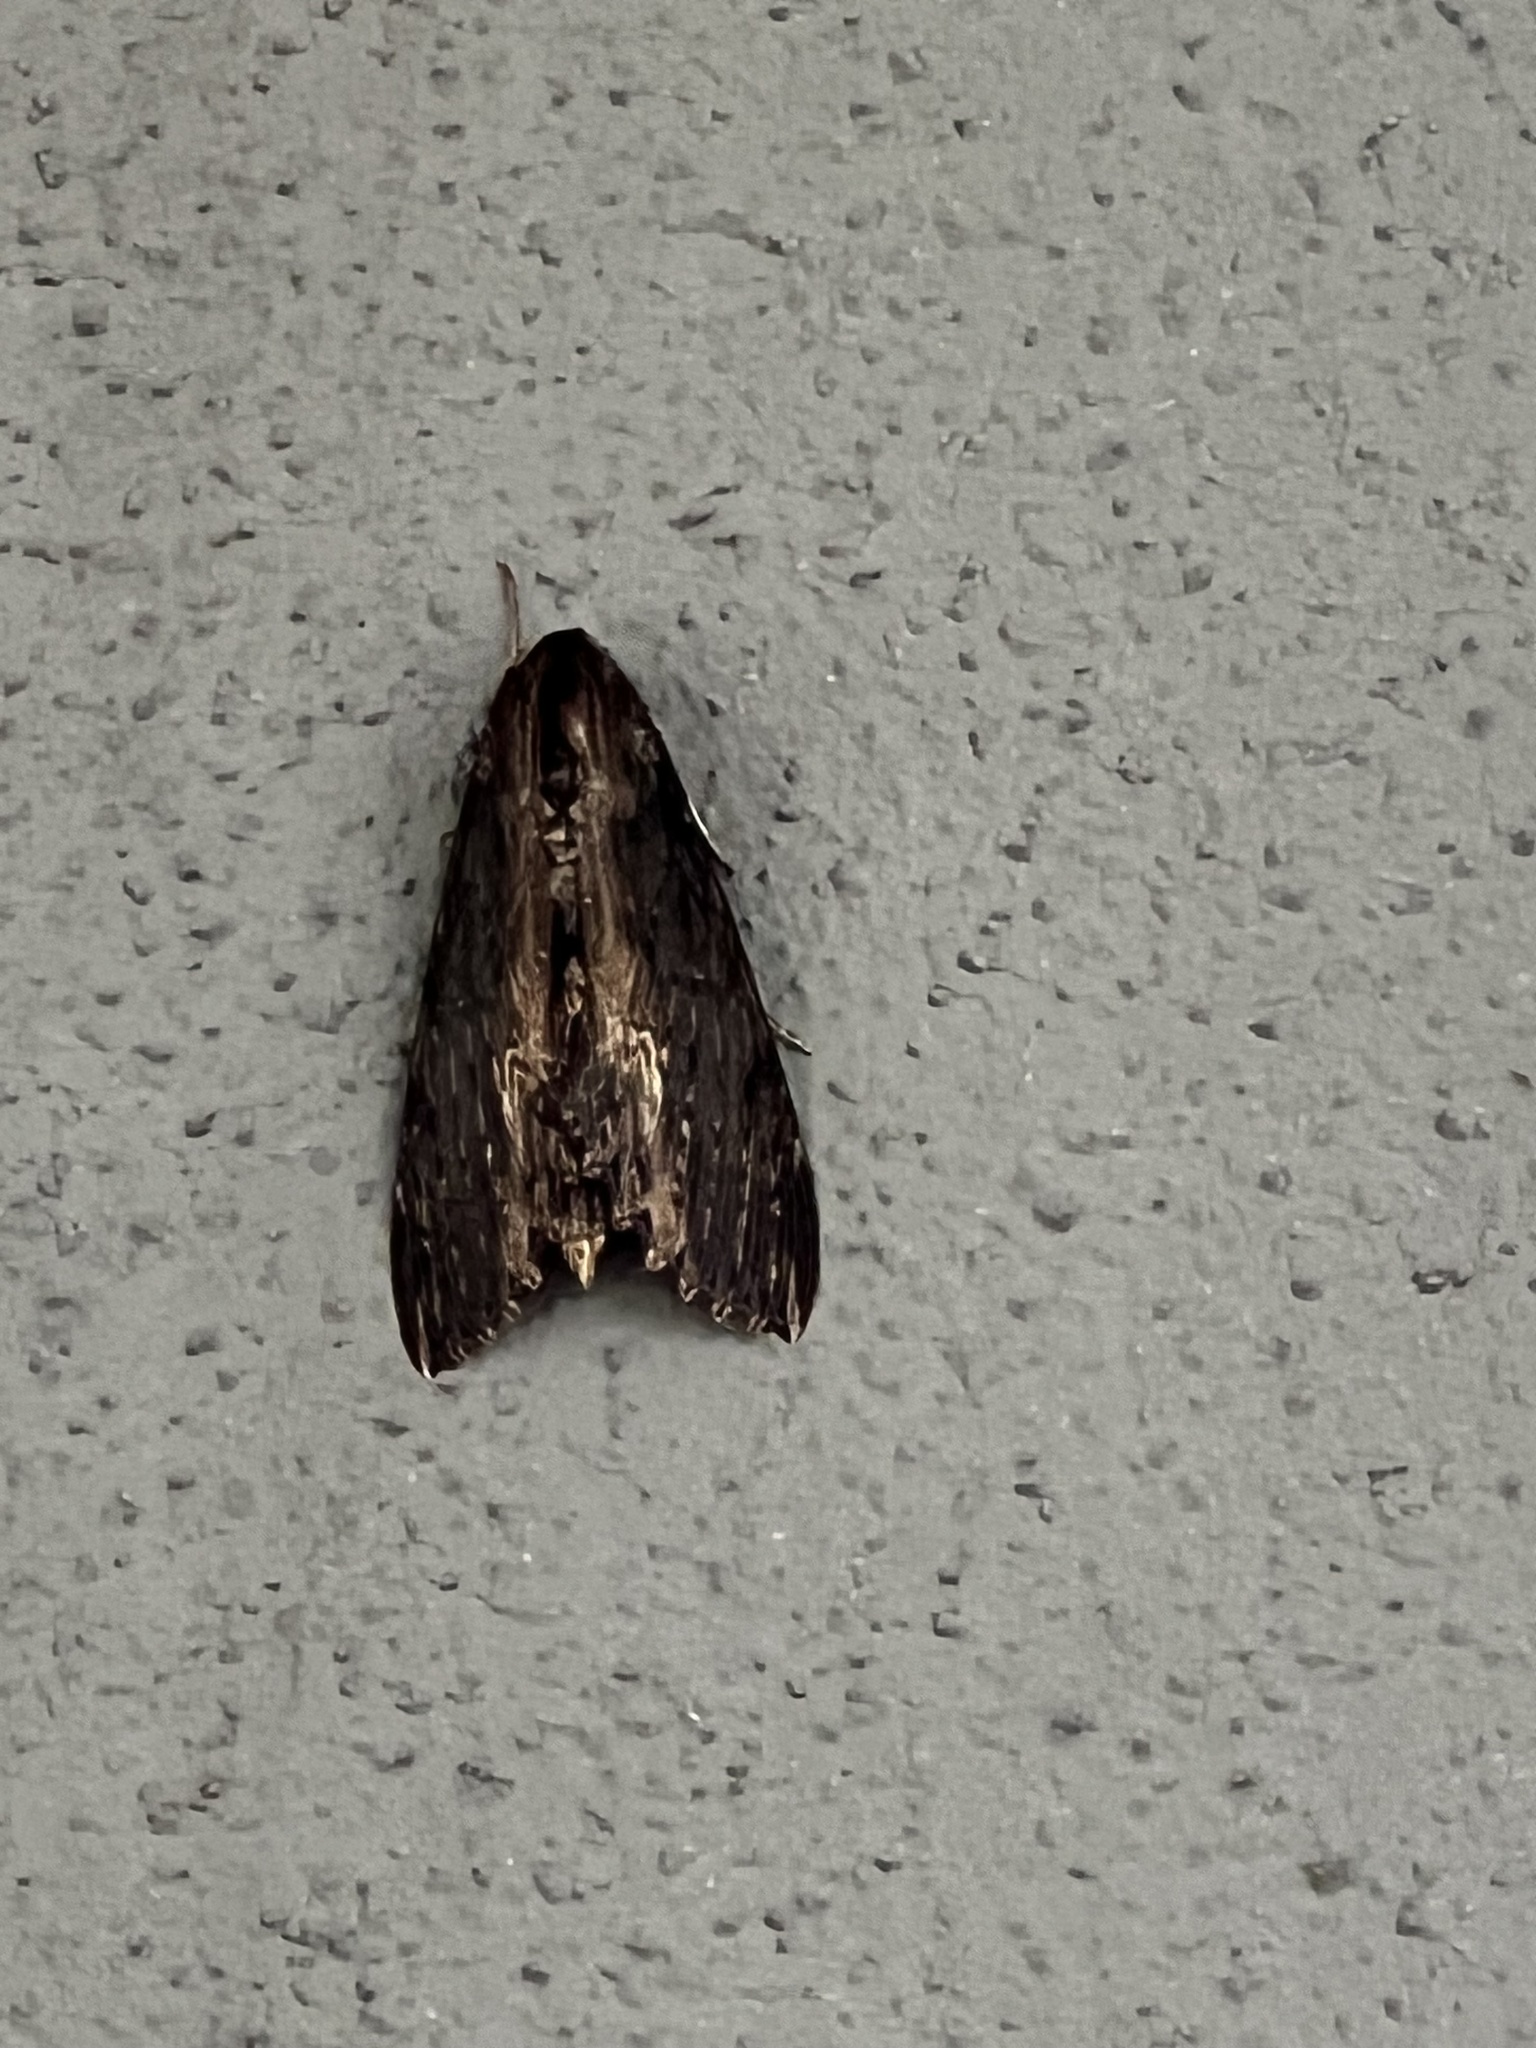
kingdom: Animalia
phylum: Arthropoda
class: Insecta
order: Lepidoptera
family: Sphingidae
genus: Erinnyis
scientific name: Erinnyis alope
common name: Alope sphinx
